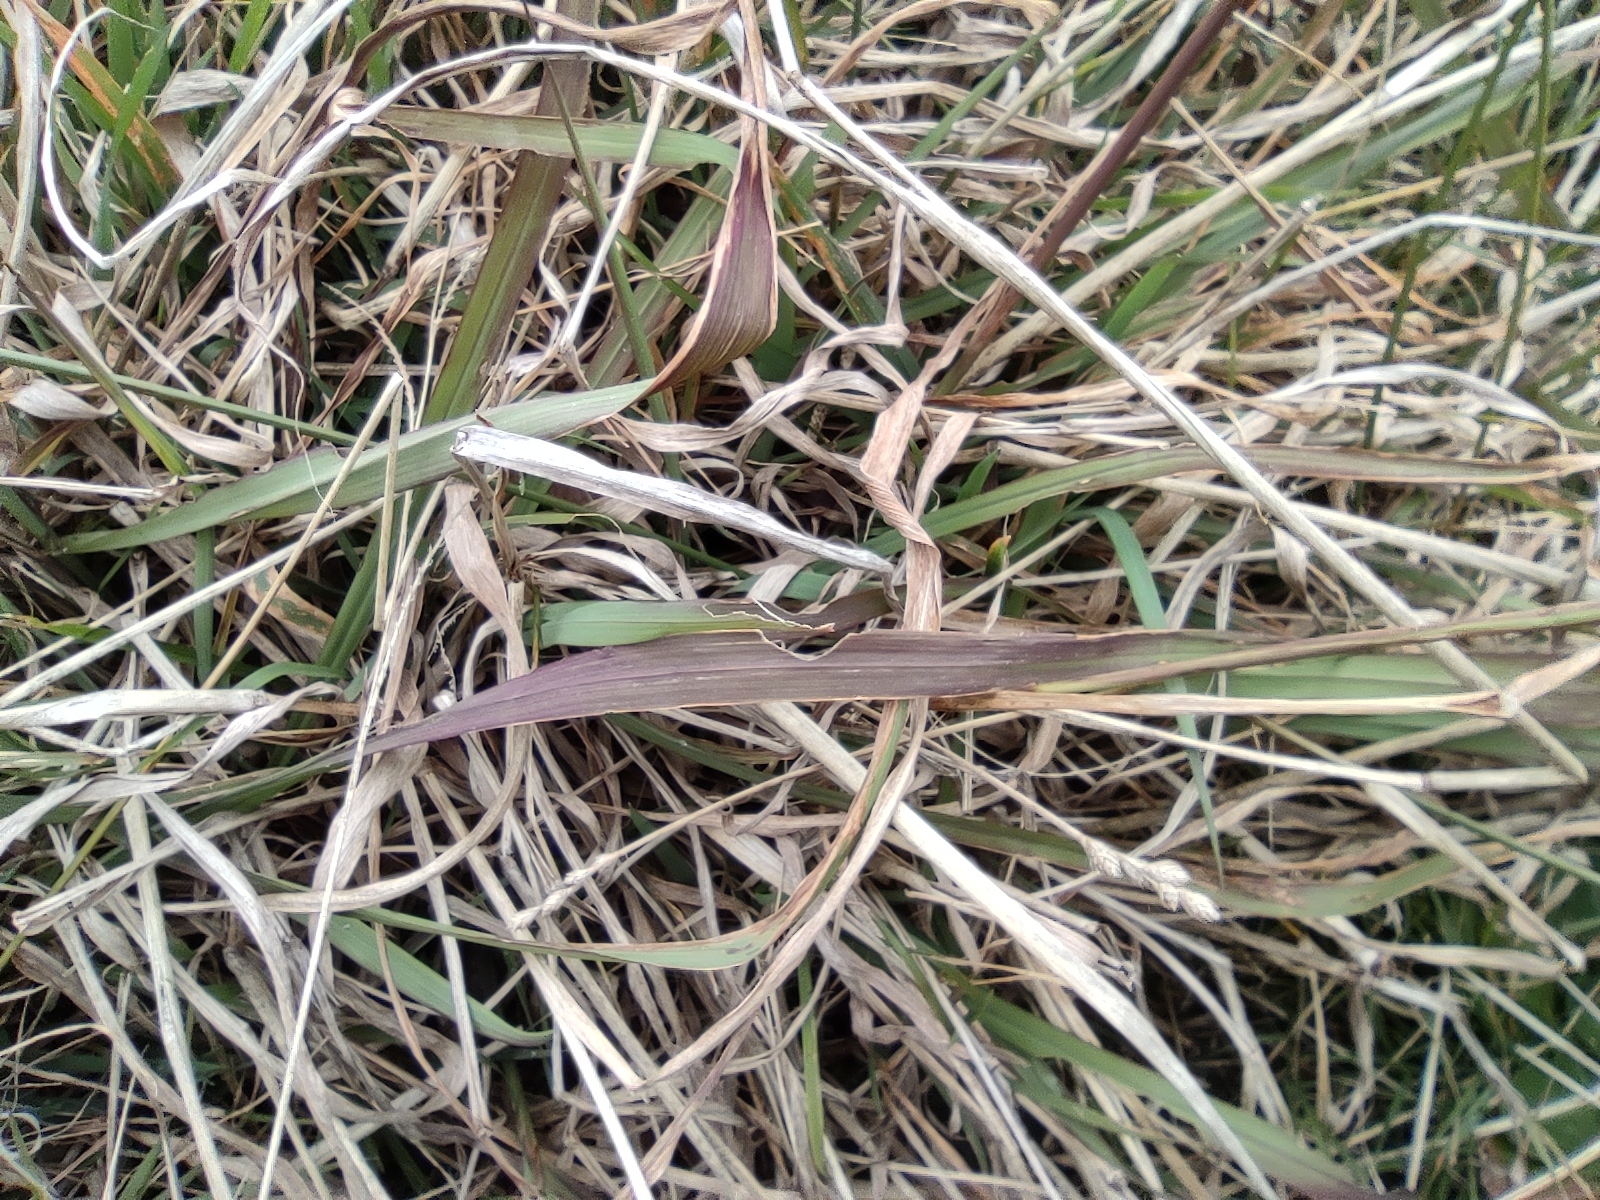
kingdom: Plantae
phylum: Tracheophyta
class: Liliopsida
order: Poales
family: Poaceae
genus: Paspalum
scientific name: Paspalum dilatatum
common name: Dallisgrass
